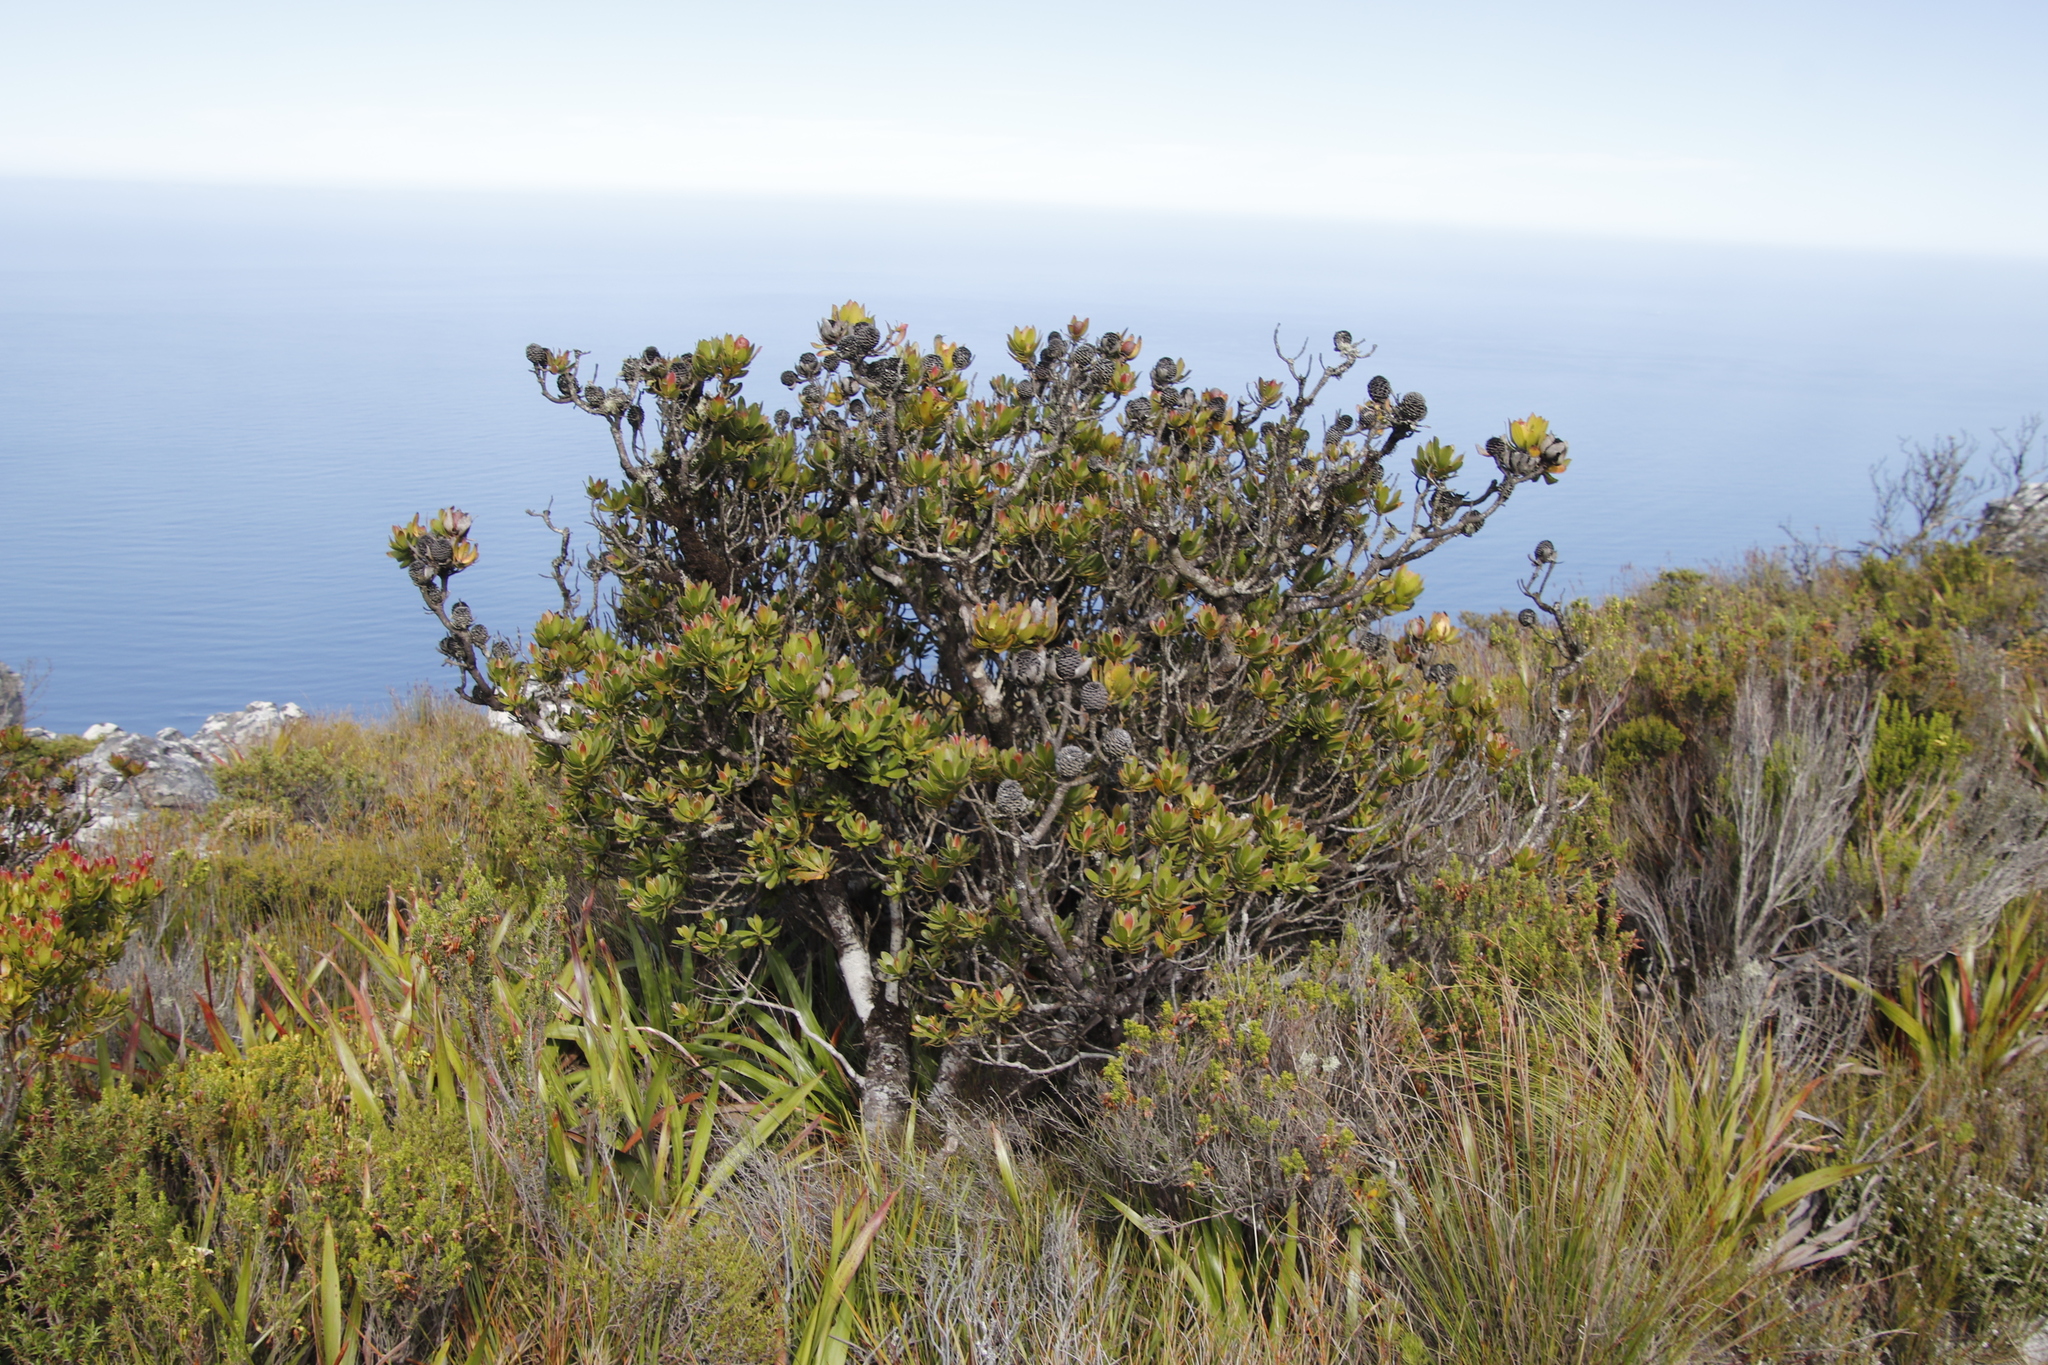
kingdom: Plantae
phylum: Tracheophyta
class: Magnoliopsida
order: Proteales
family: Proteaceae
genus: Leucadendron
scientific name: Leucadendron strobilinum
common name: Mountain rose
